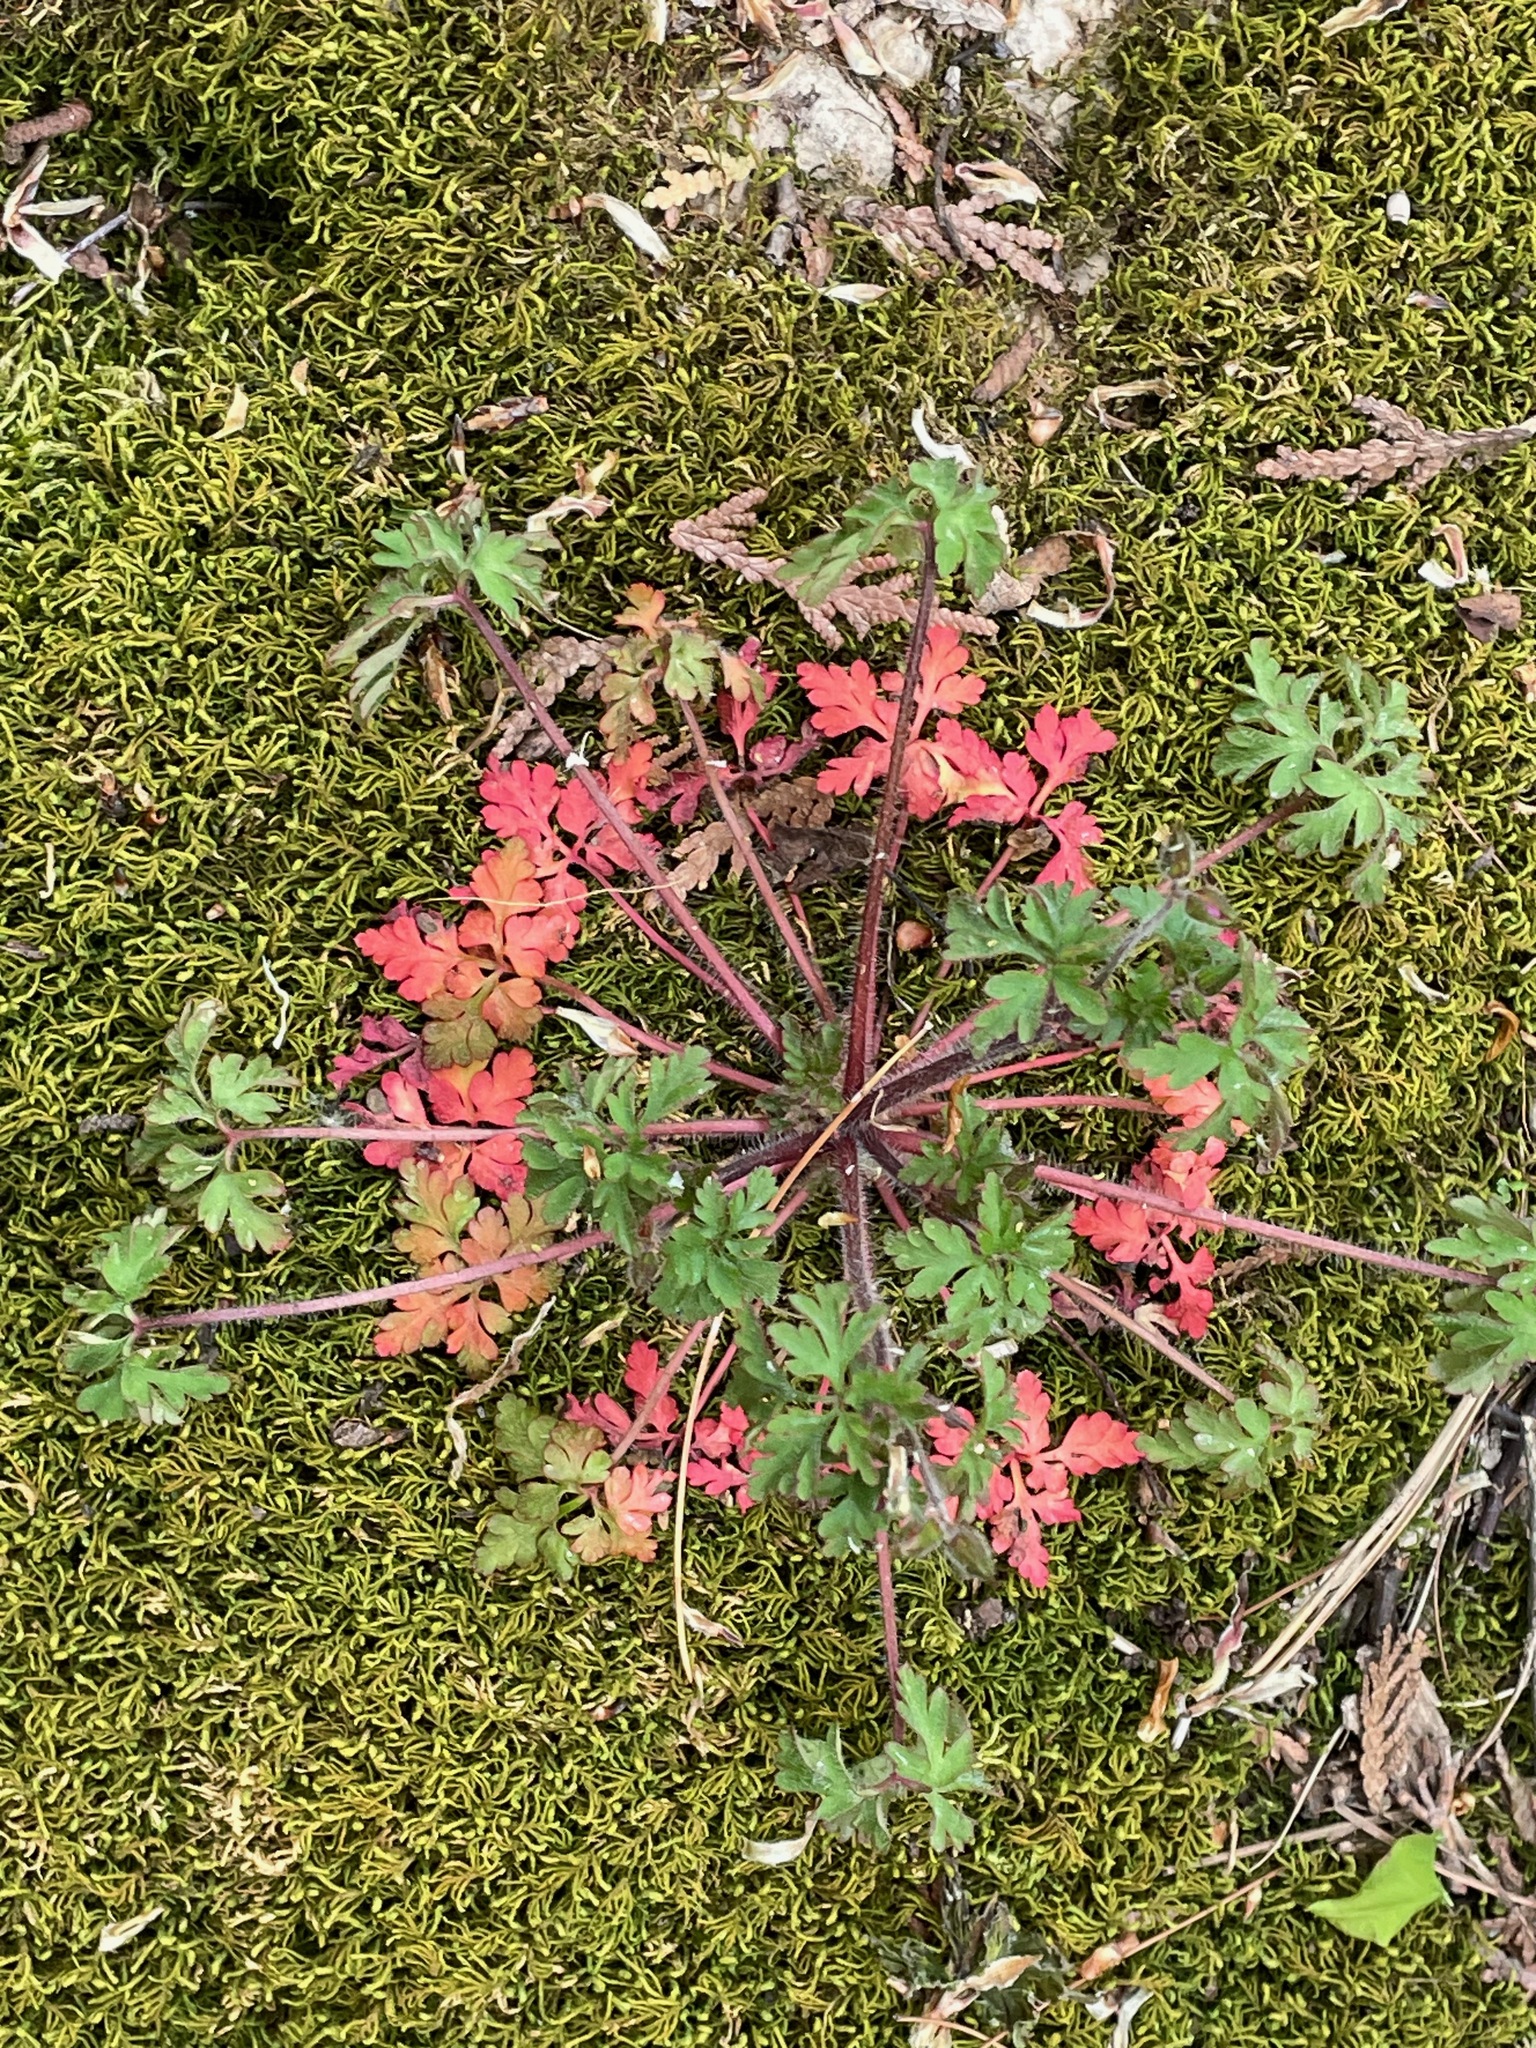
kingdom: Plantae
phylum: Tracheophyta
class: Magnoliopsida
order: Geraniales
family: Geraniaceae
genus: Geranium
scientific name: Geranium robertianum
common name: Herb-robert
